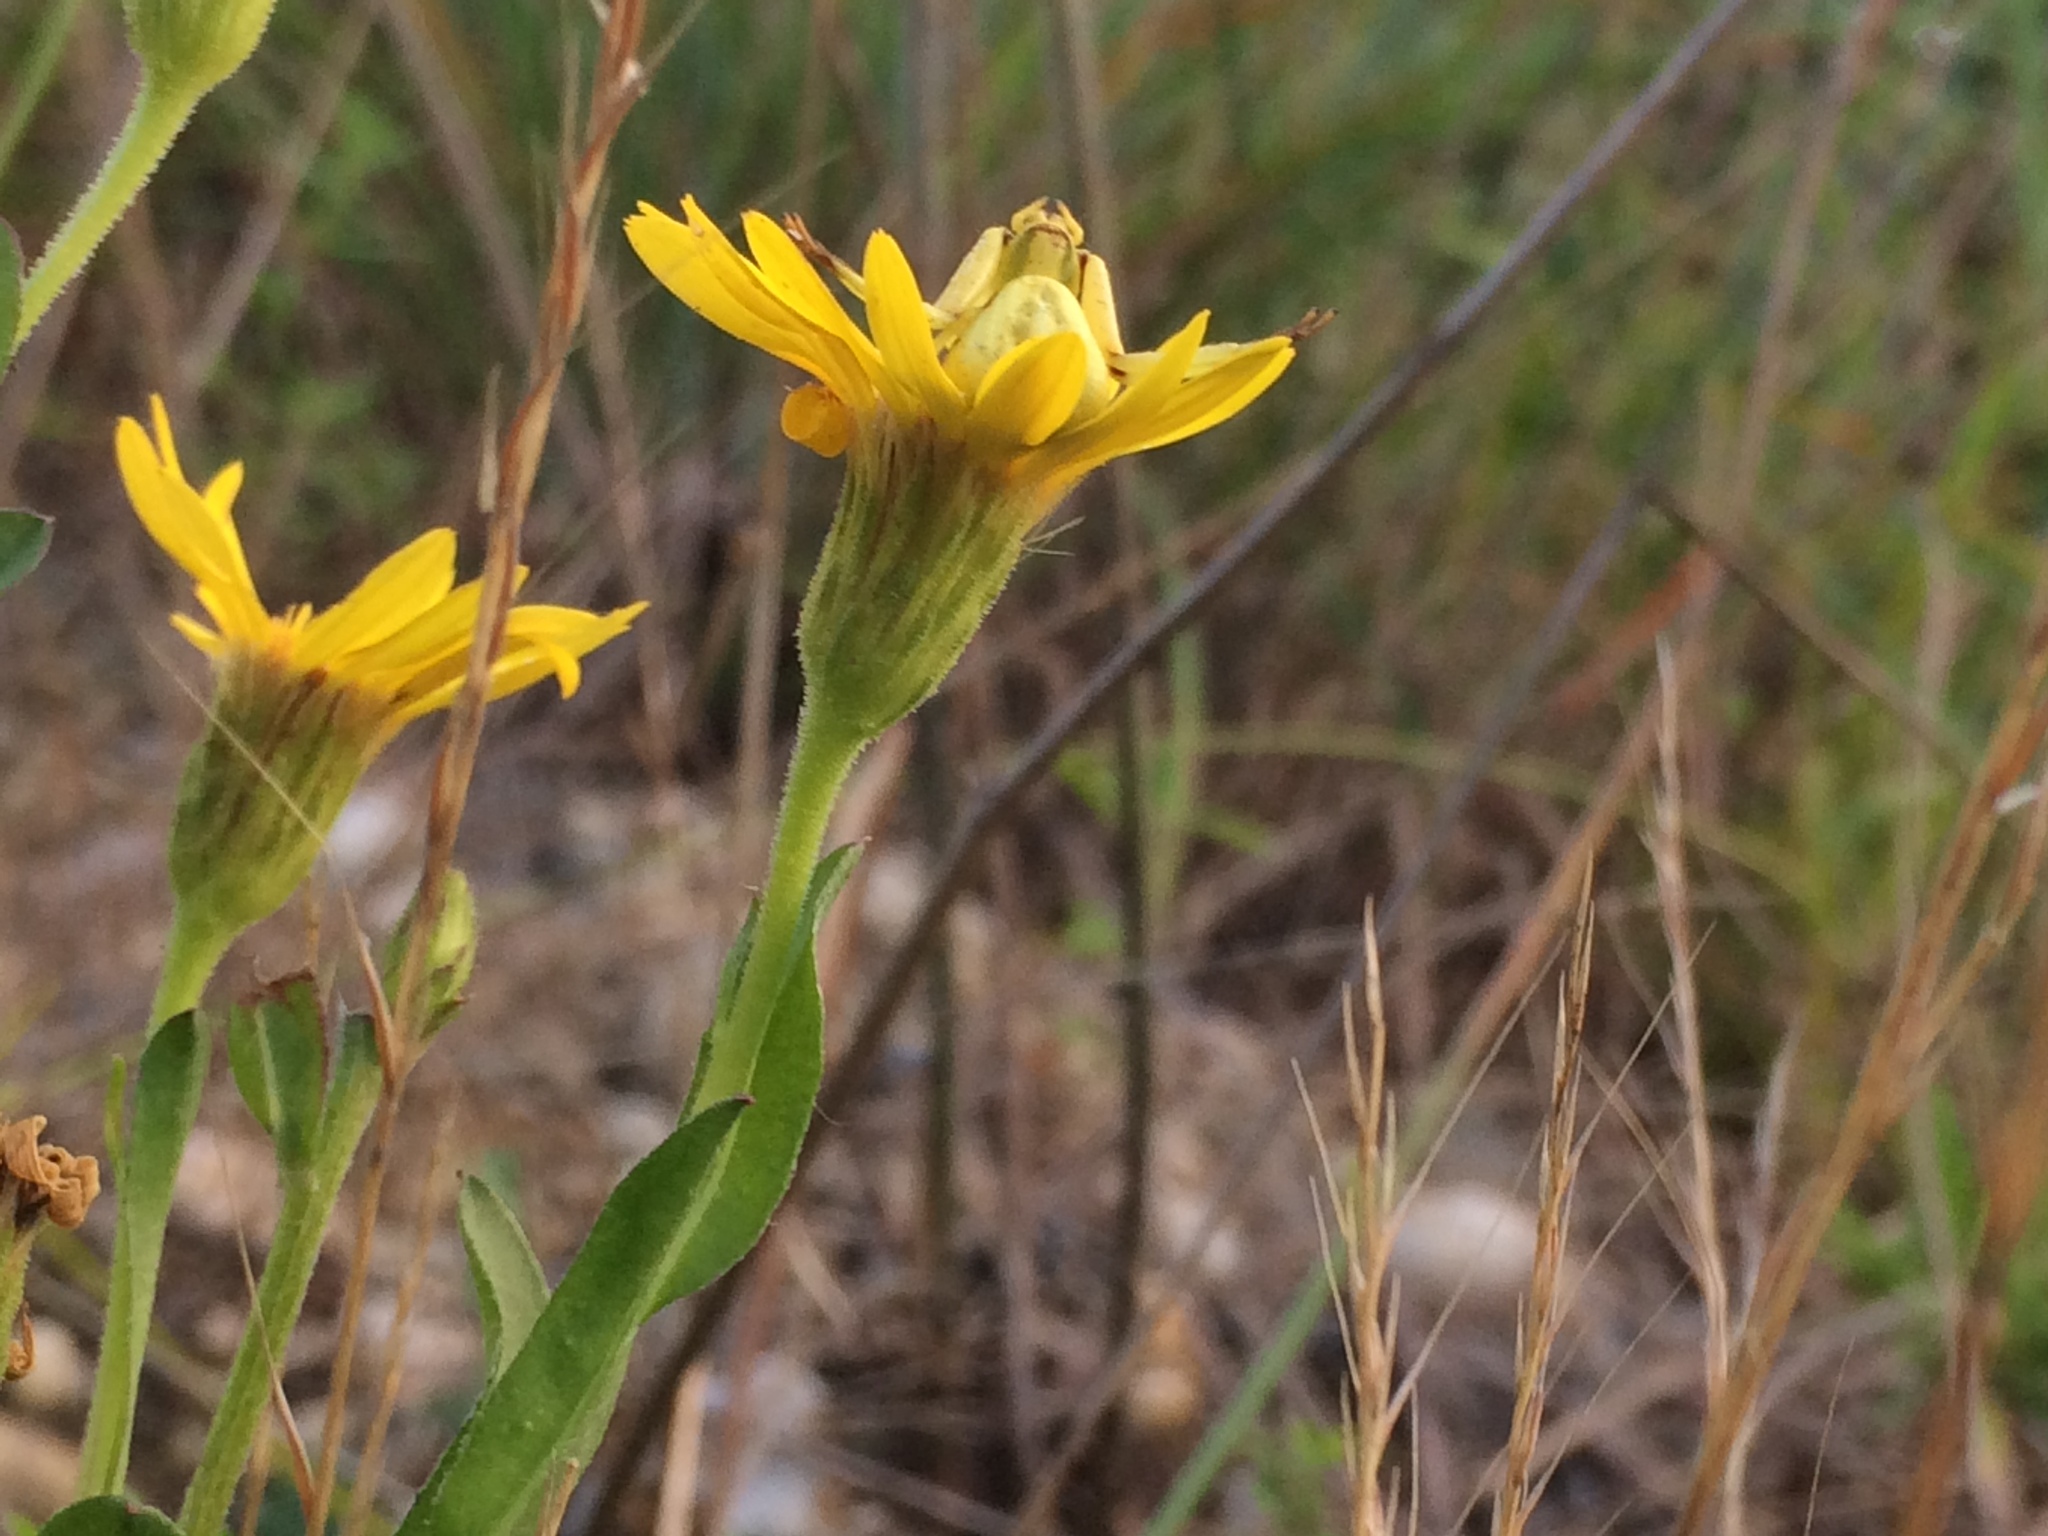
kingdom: Animalia
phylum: Arthropoda
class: Arachnida
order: Araneae
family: Thomisidae
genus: Misumenoides
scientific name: Misumenoides formosipes
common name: White-banded crab spider
